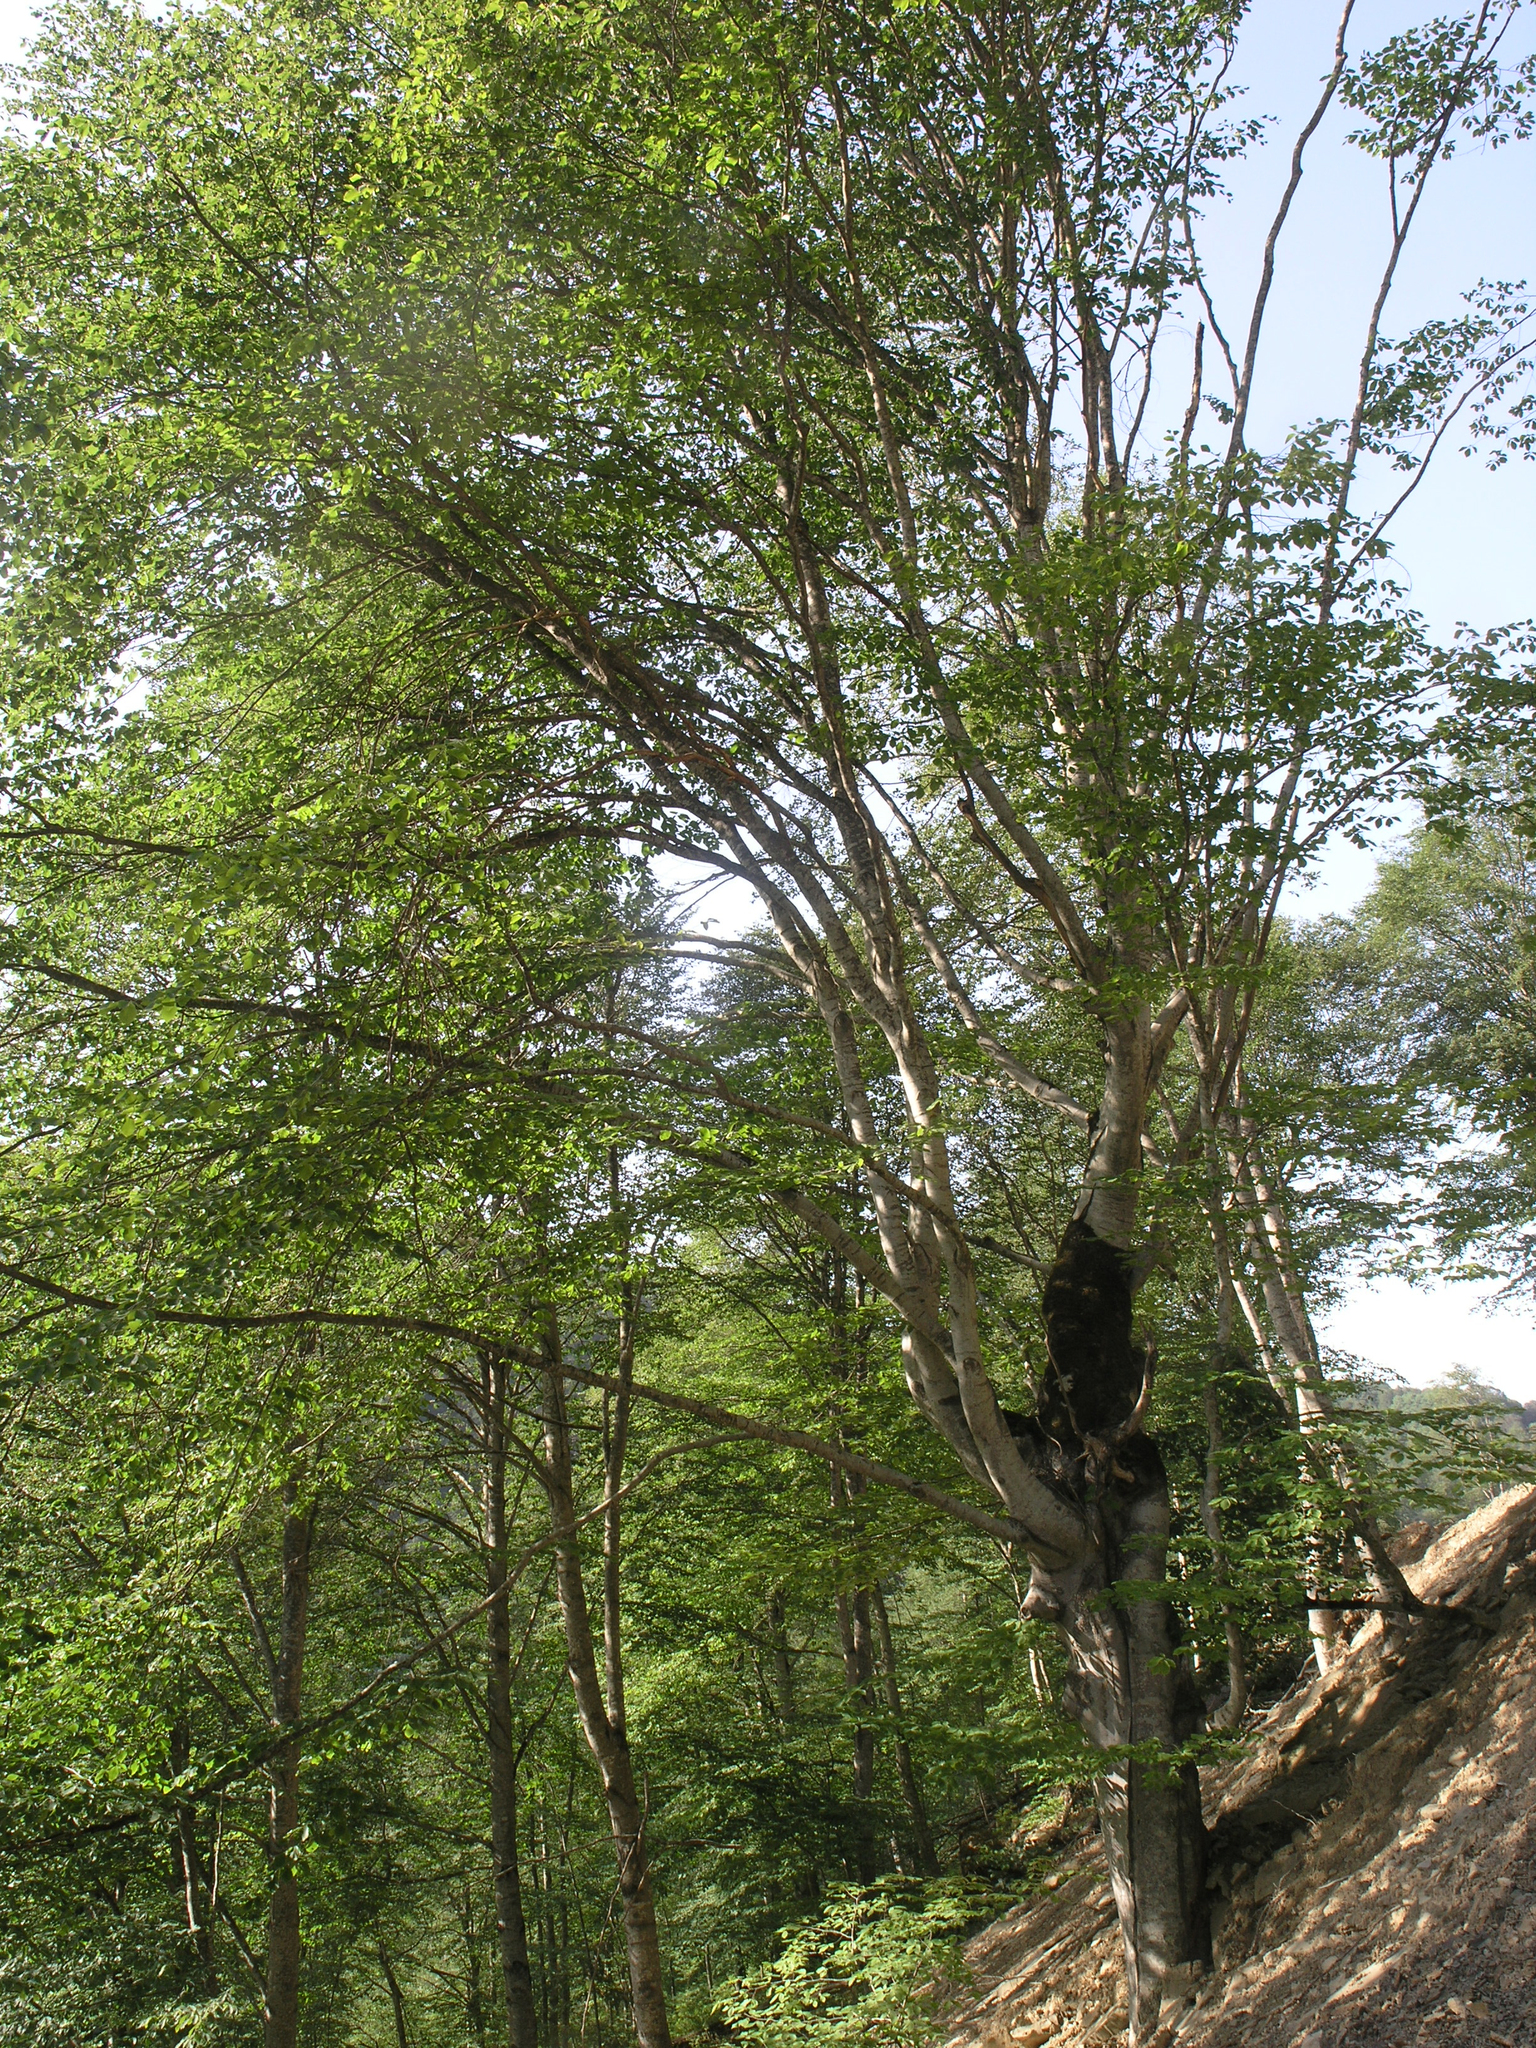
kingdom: Plantae
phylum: Tracheophyta
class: Magnoliopsida
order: Fagales
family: Fagaceae
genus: Fagus
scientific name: Fagus orientalis
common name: Oriental beech
